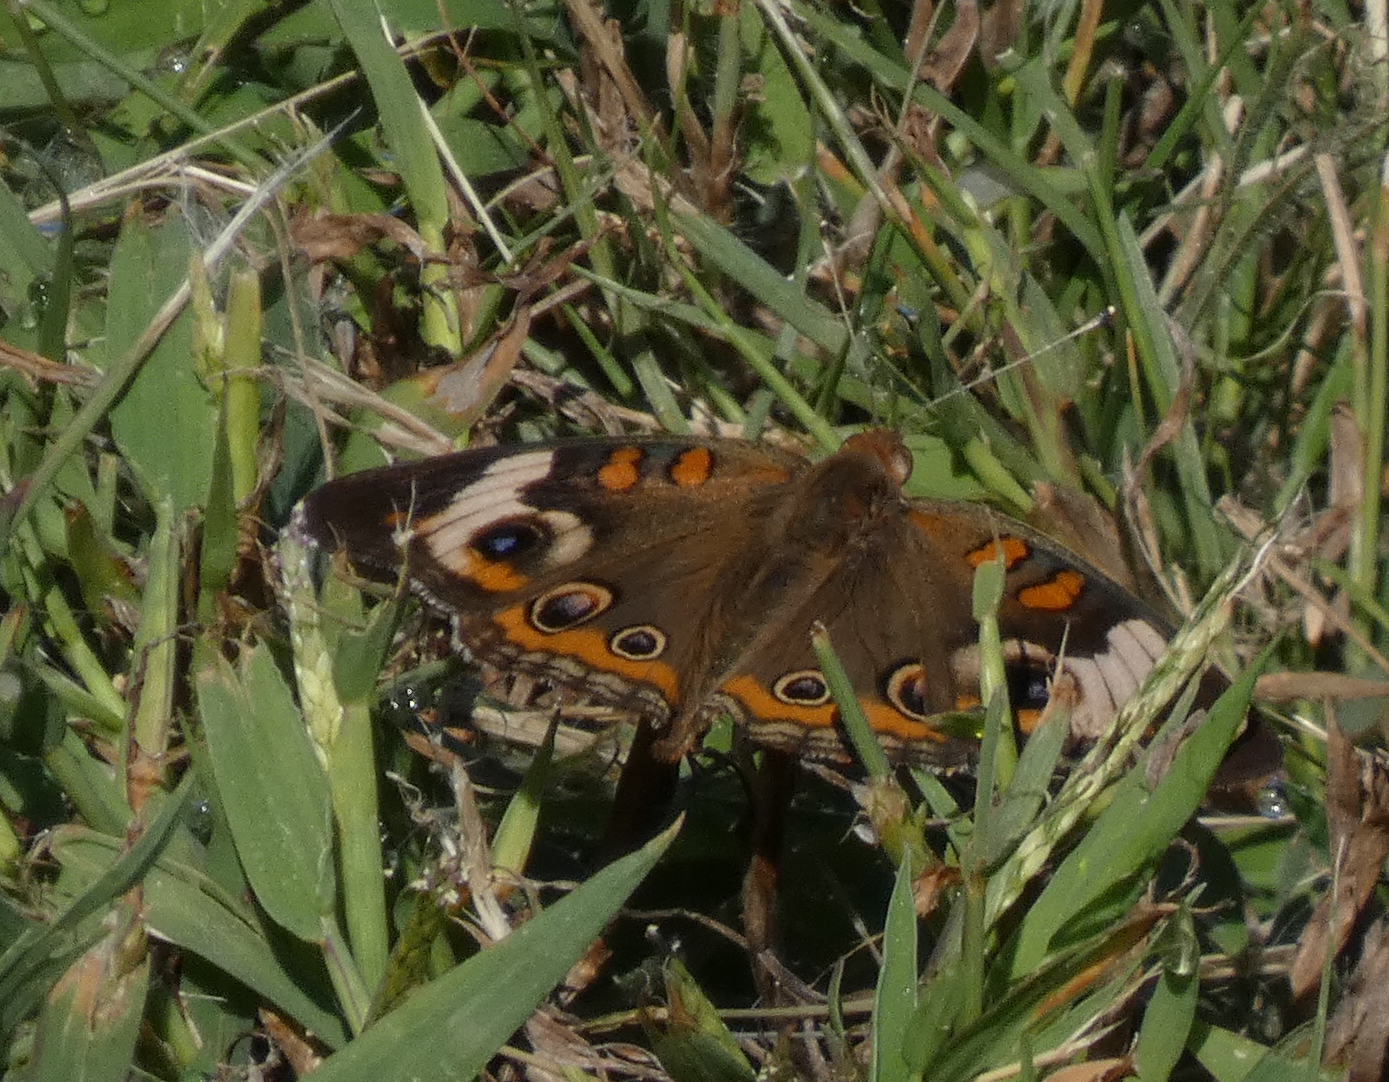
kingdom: Animalia
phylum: Arthropoda
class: Insecta
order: Lepidoptera
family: Nymphalidae
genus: Junonia
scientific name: Junonia coenia
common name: Common buckeye
